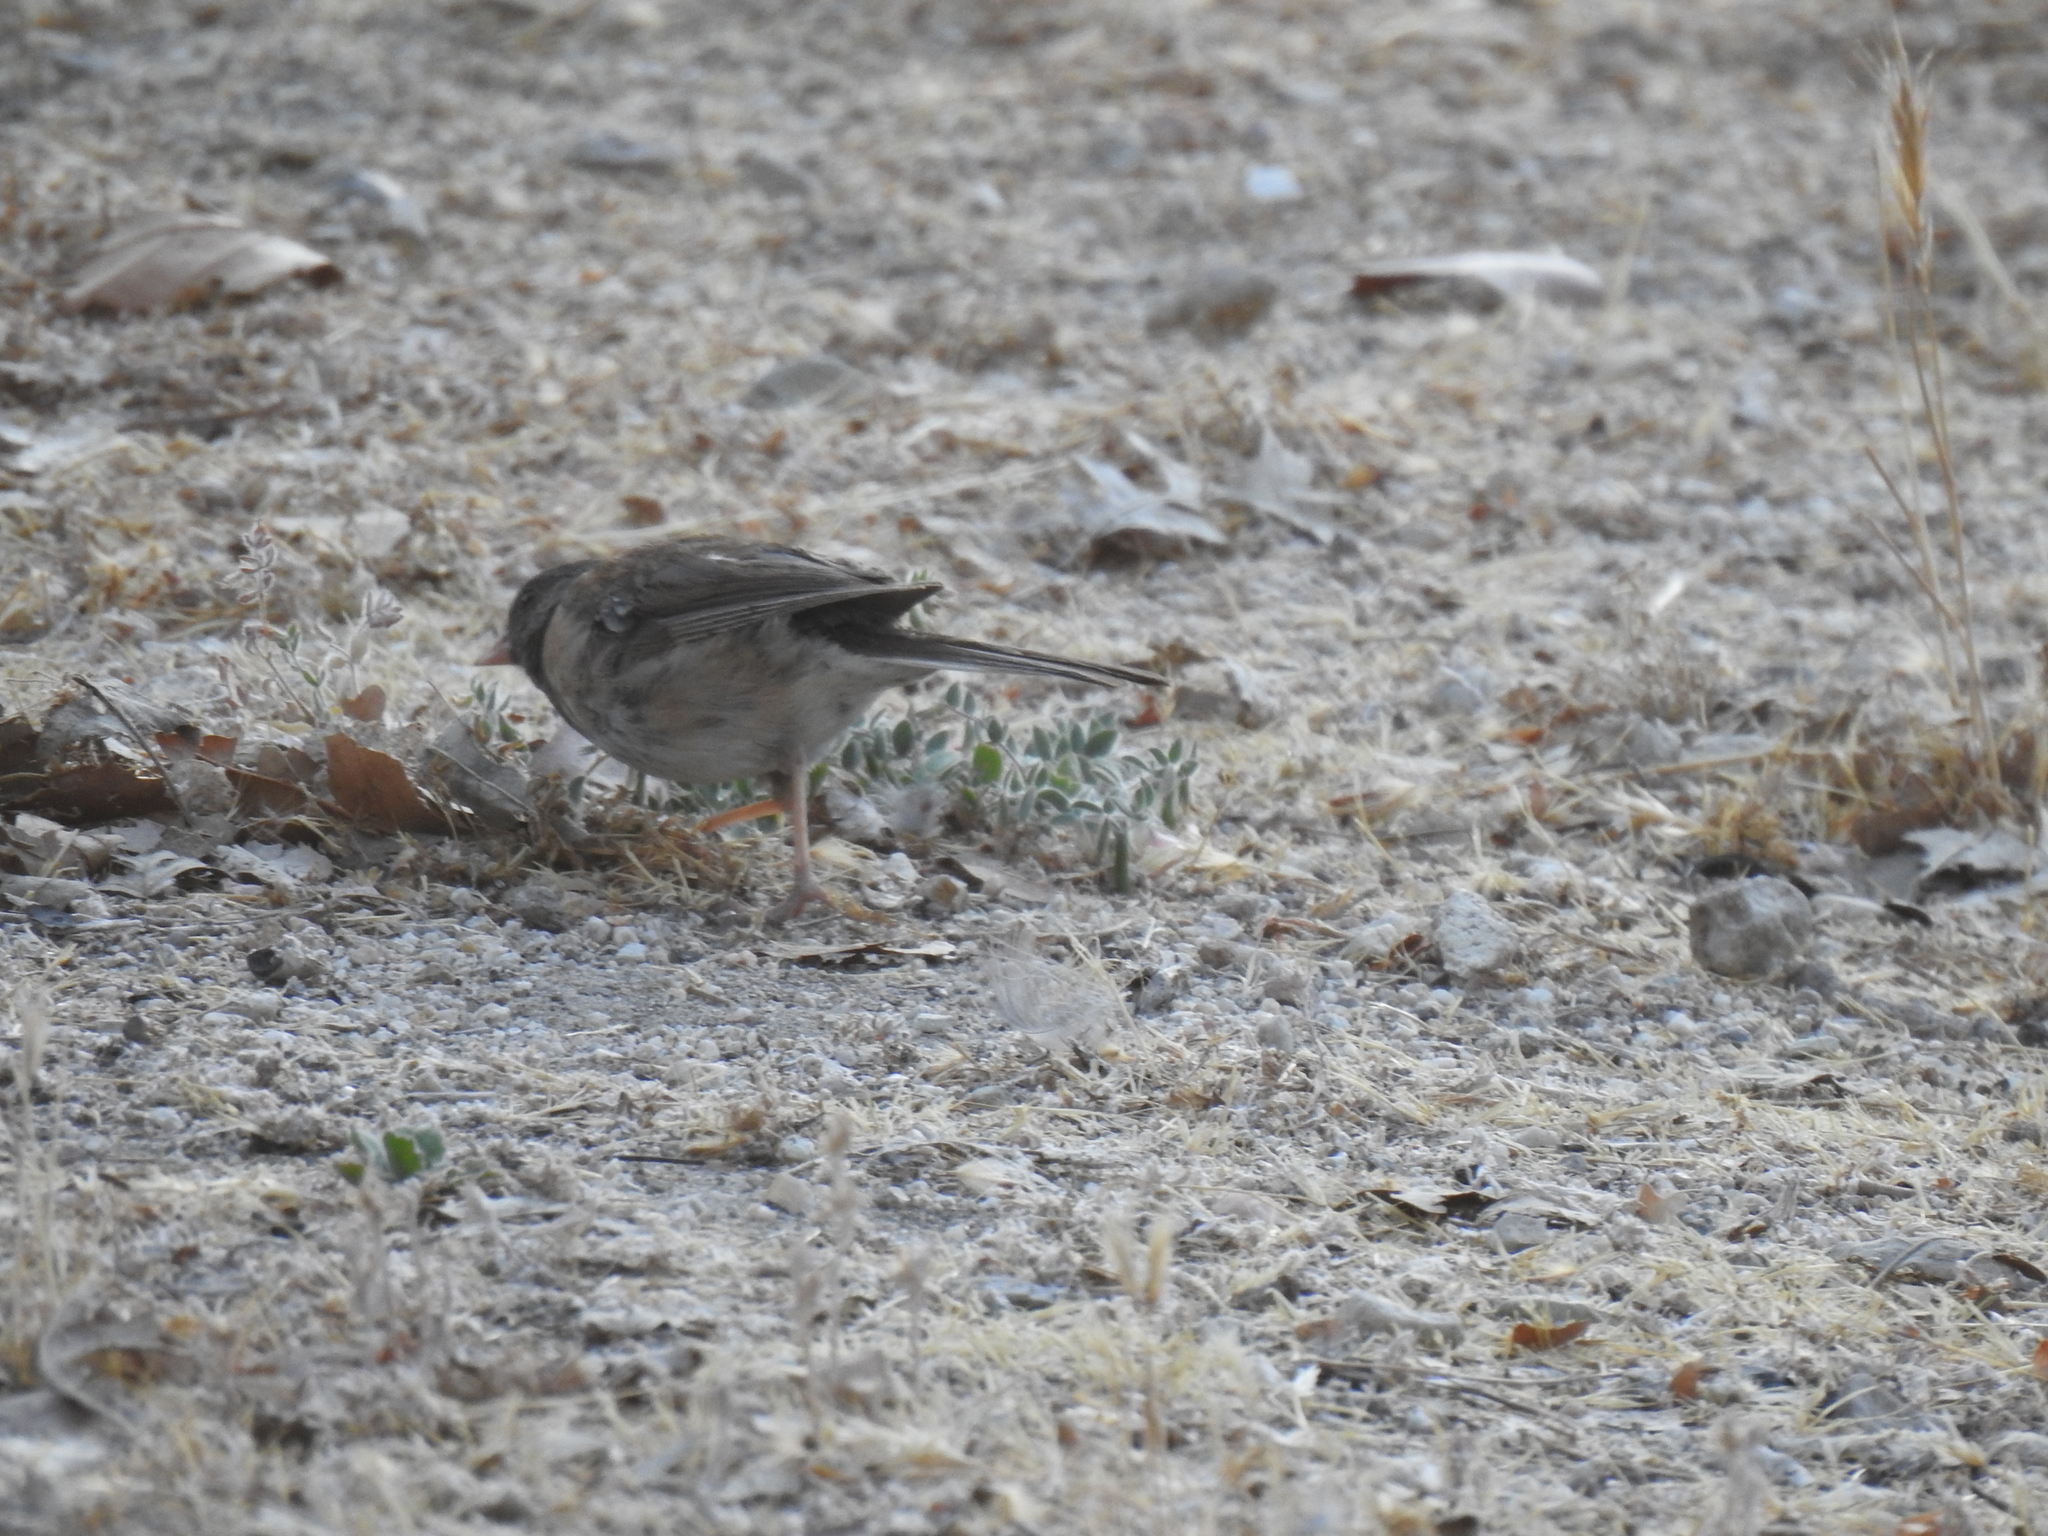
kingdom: Animalia
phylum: Chordata
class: Aves
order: Passeriformes
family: Passerellidae
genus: Junco
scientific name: Junco hyemalis
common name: Dark-eyed junco
